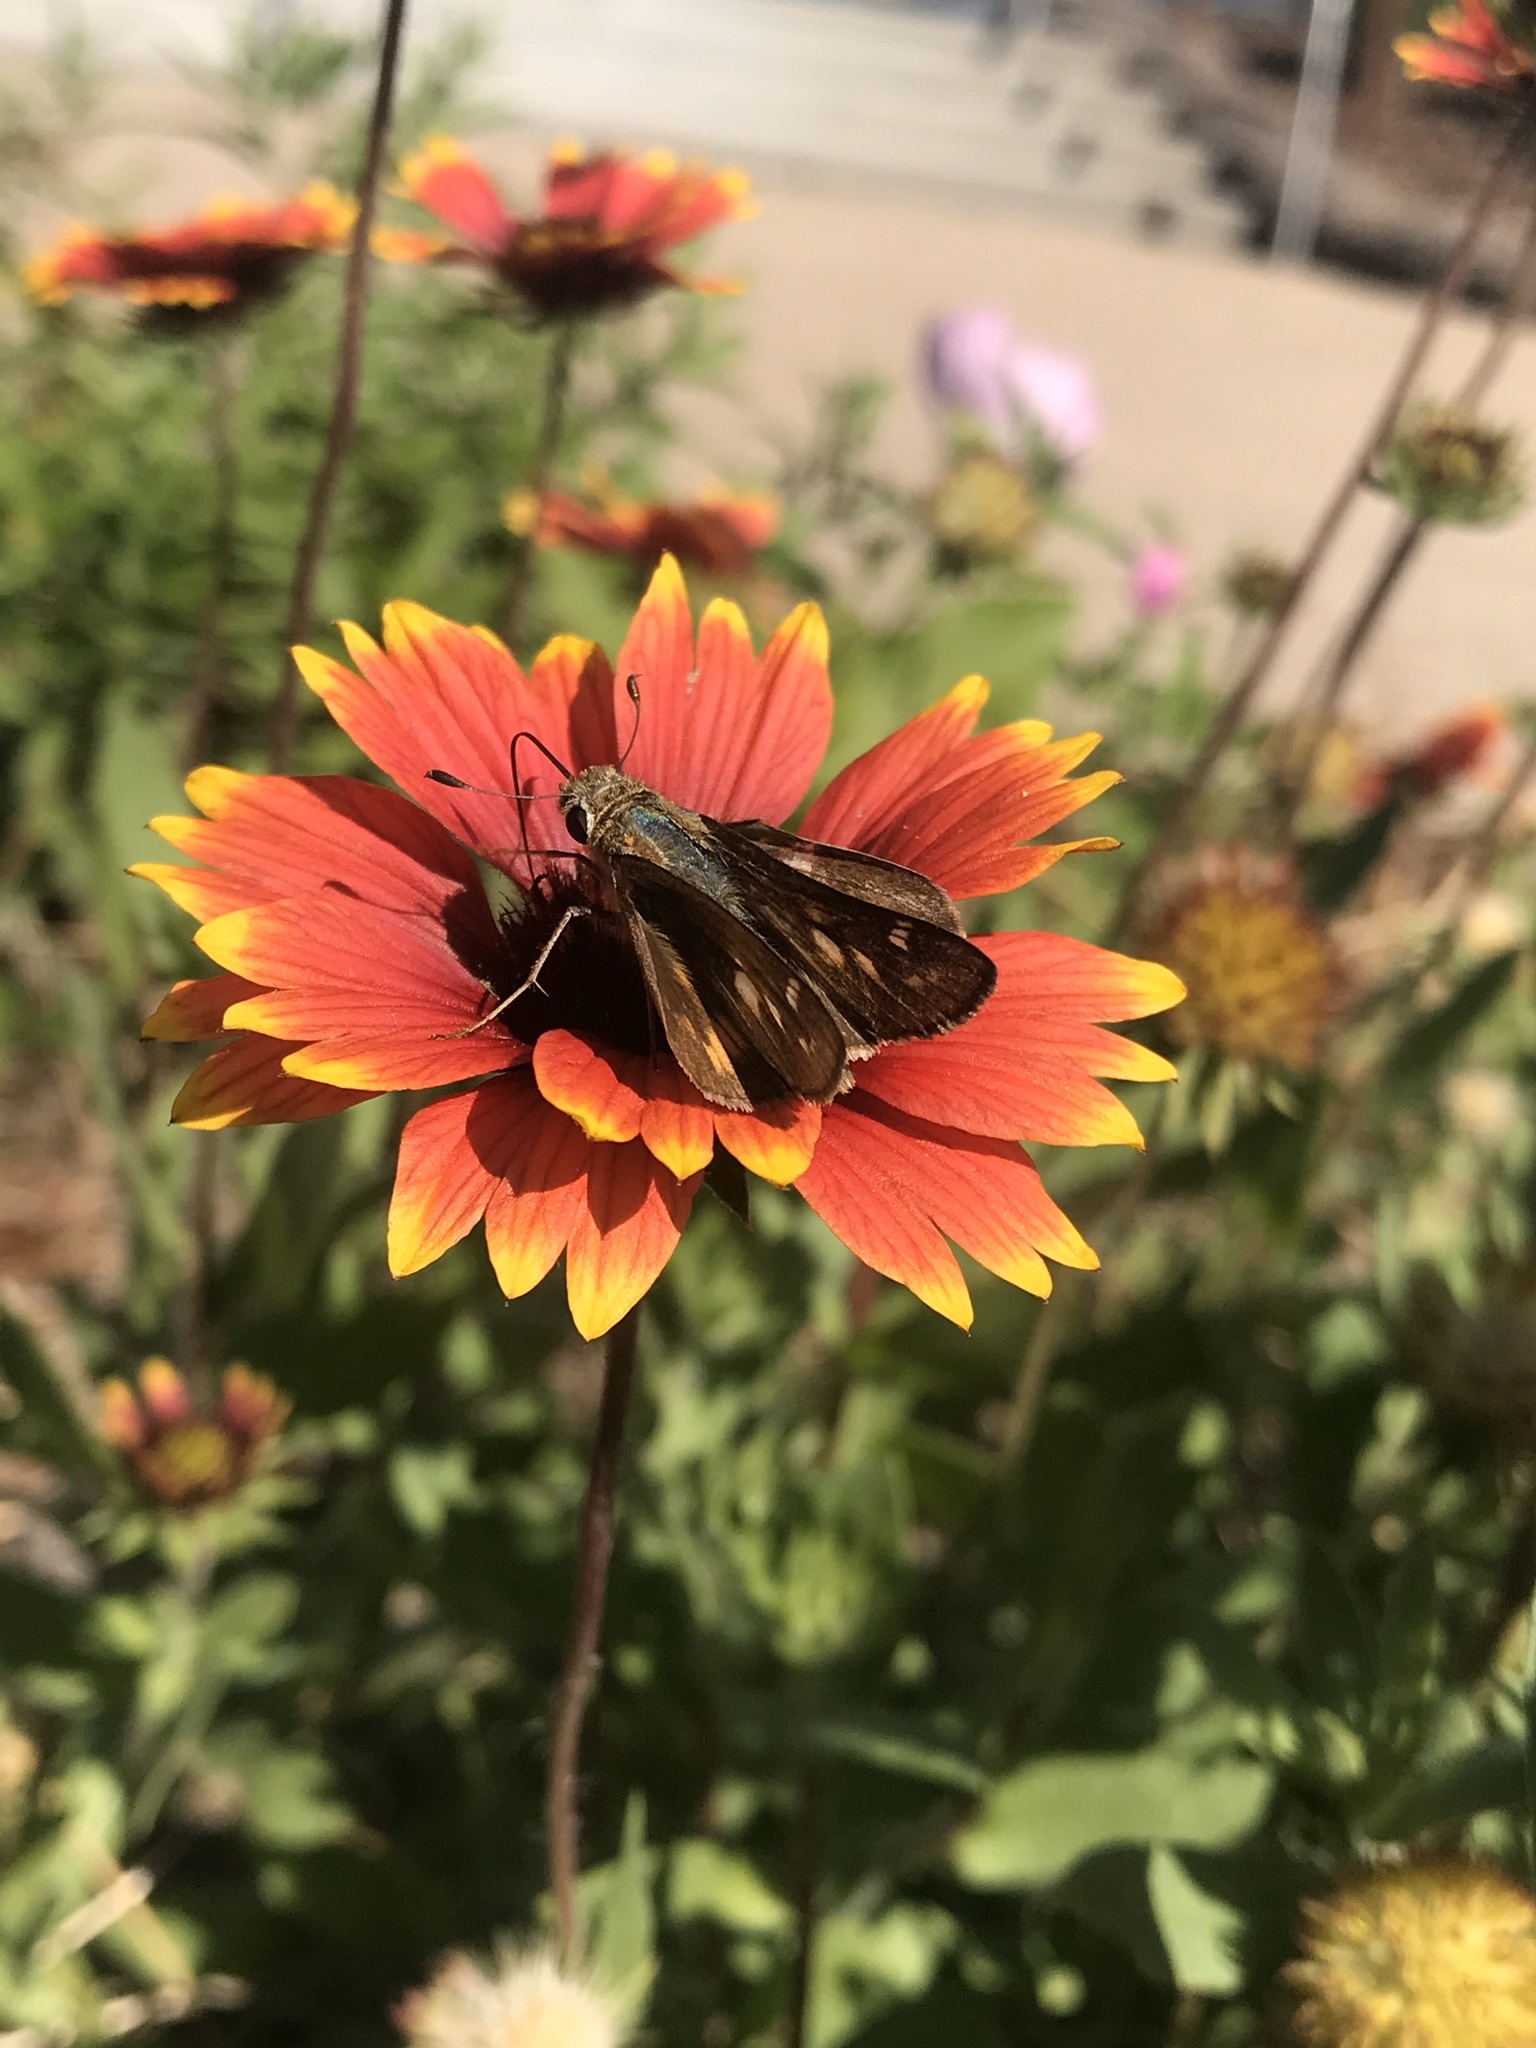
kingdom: Animalia
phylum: Arthropoda
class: Insecta
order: Lepidoptera
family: Hesperiidae
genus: Atalopedes
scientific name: Atalopedes
